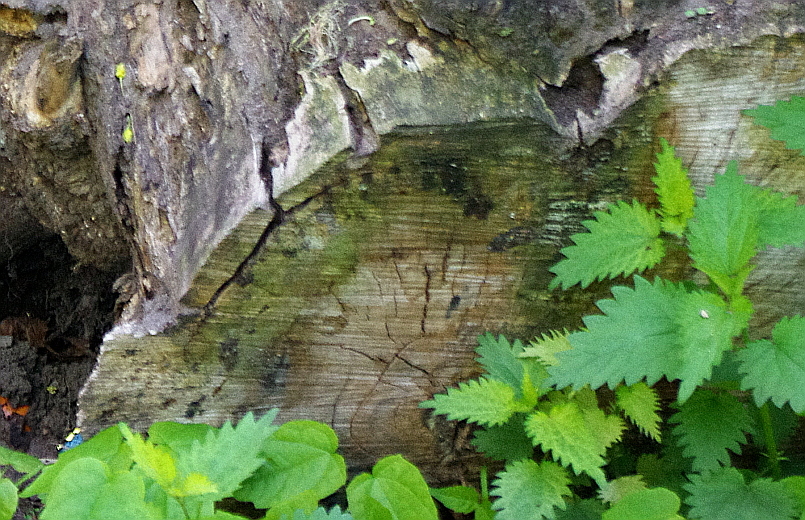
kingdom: Plantae
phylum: Tracheophyta
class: Magnoliopsida
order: Rosales
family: Urticaceae
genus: Urtica
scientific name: Urtica dioica
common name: Common nettle
